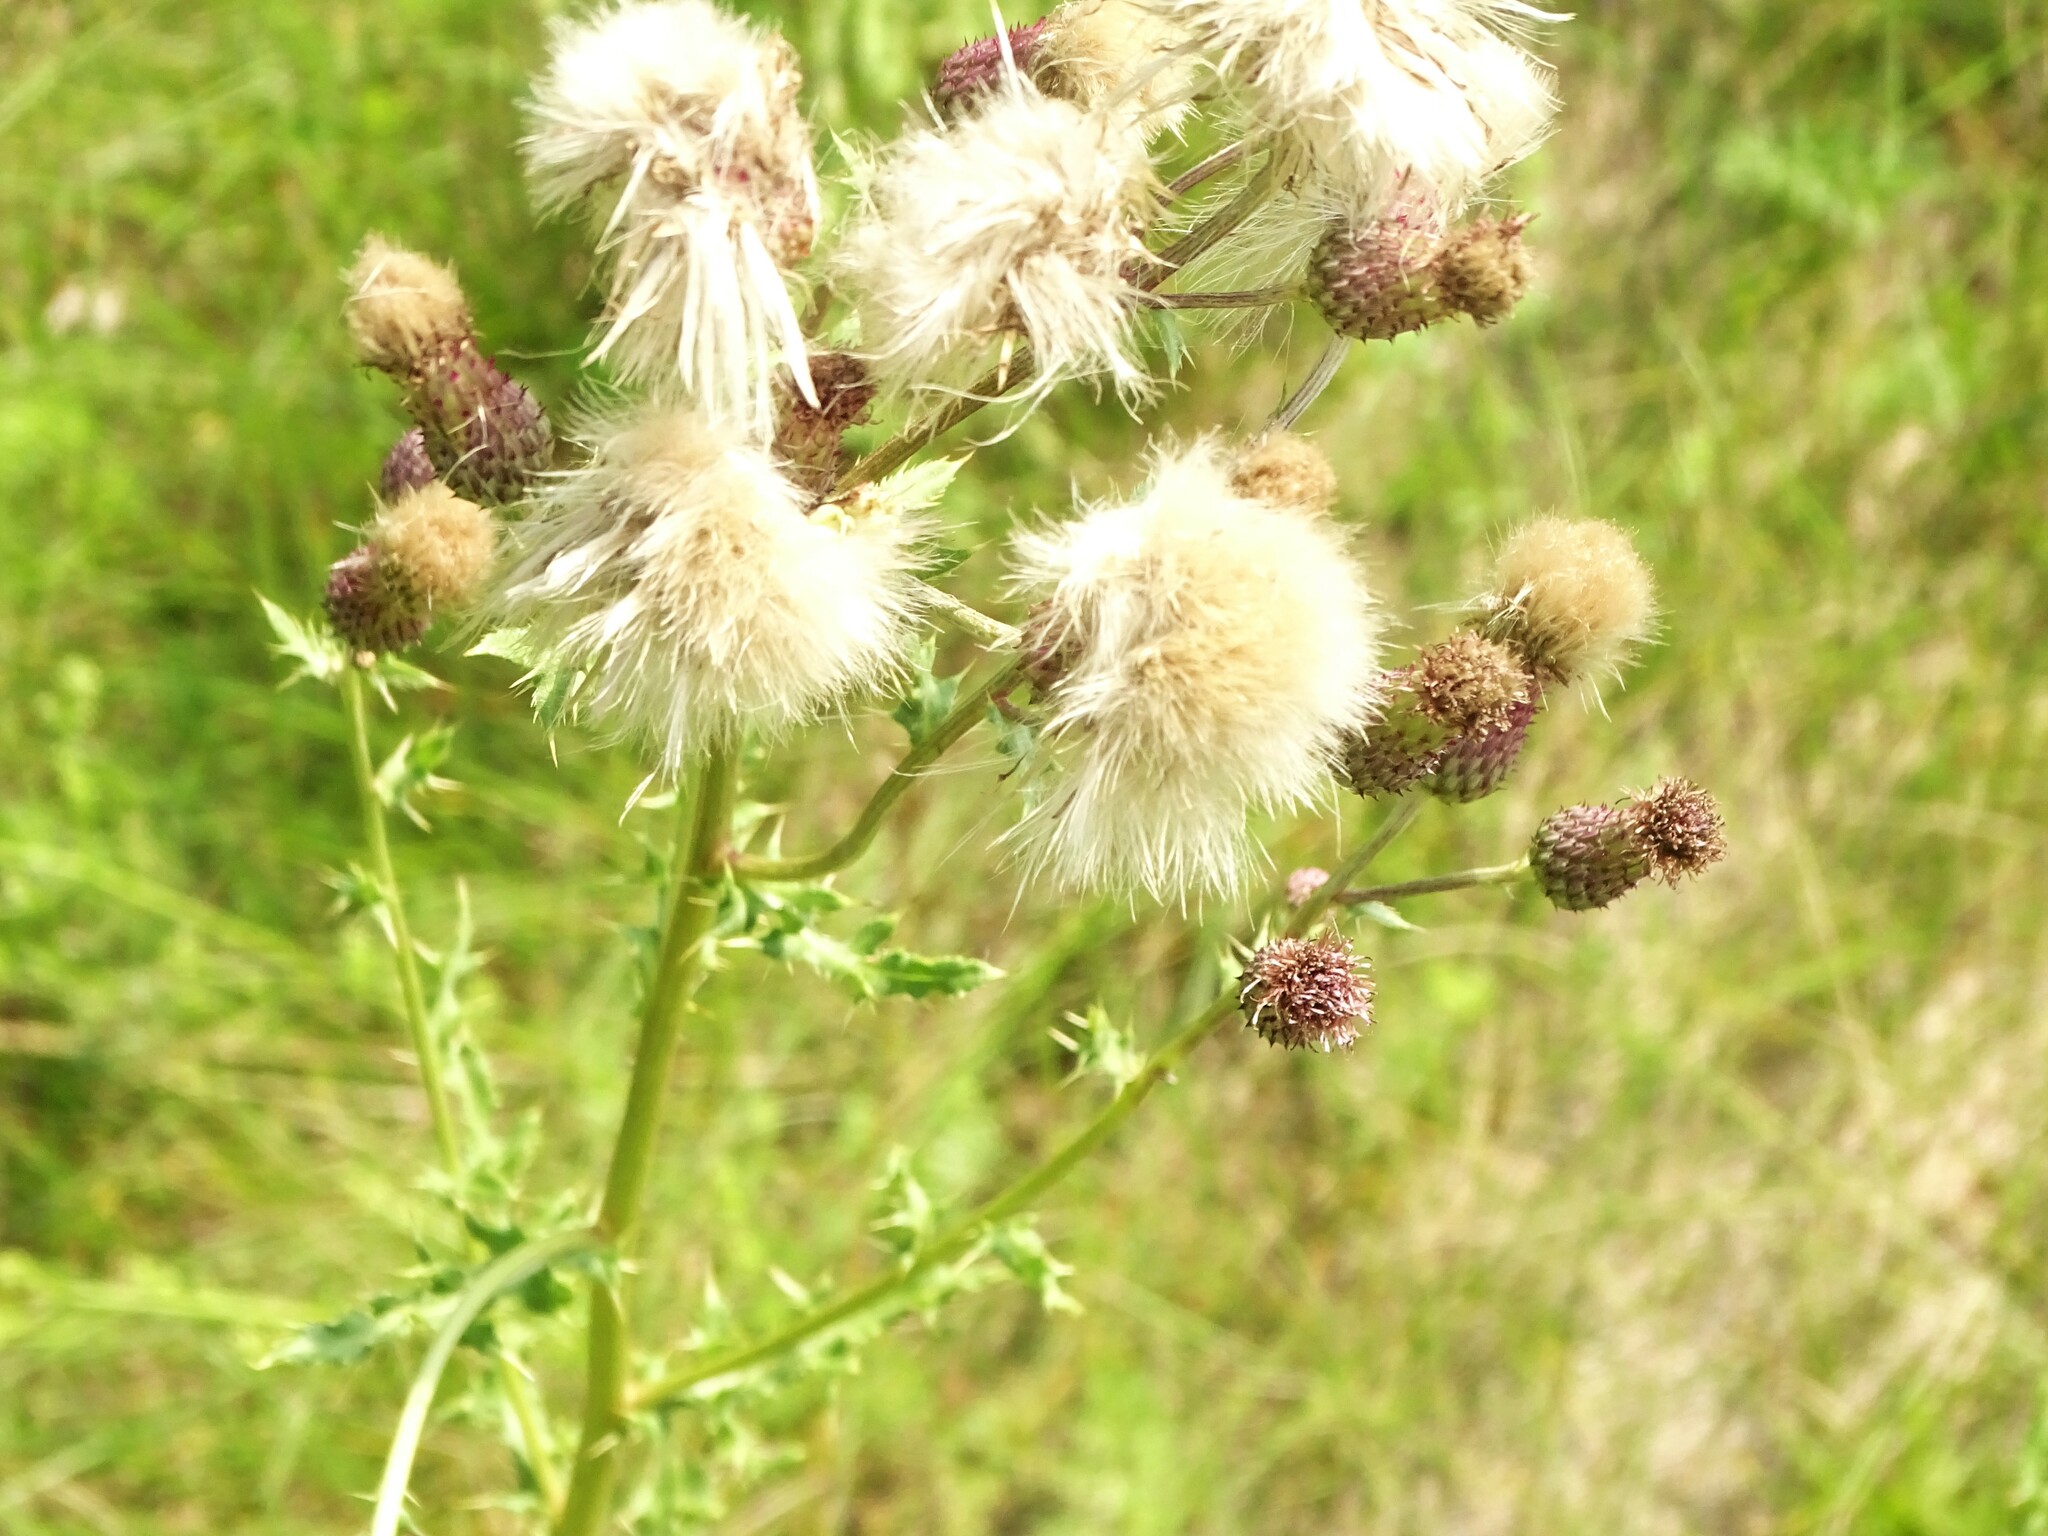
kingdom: Plantae
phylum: Tracheophyta
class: Magnoliopsida
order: Asterales
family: Asteraceae
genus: Cirsium
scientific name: Cirsium arvense
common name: Creeping thistle
